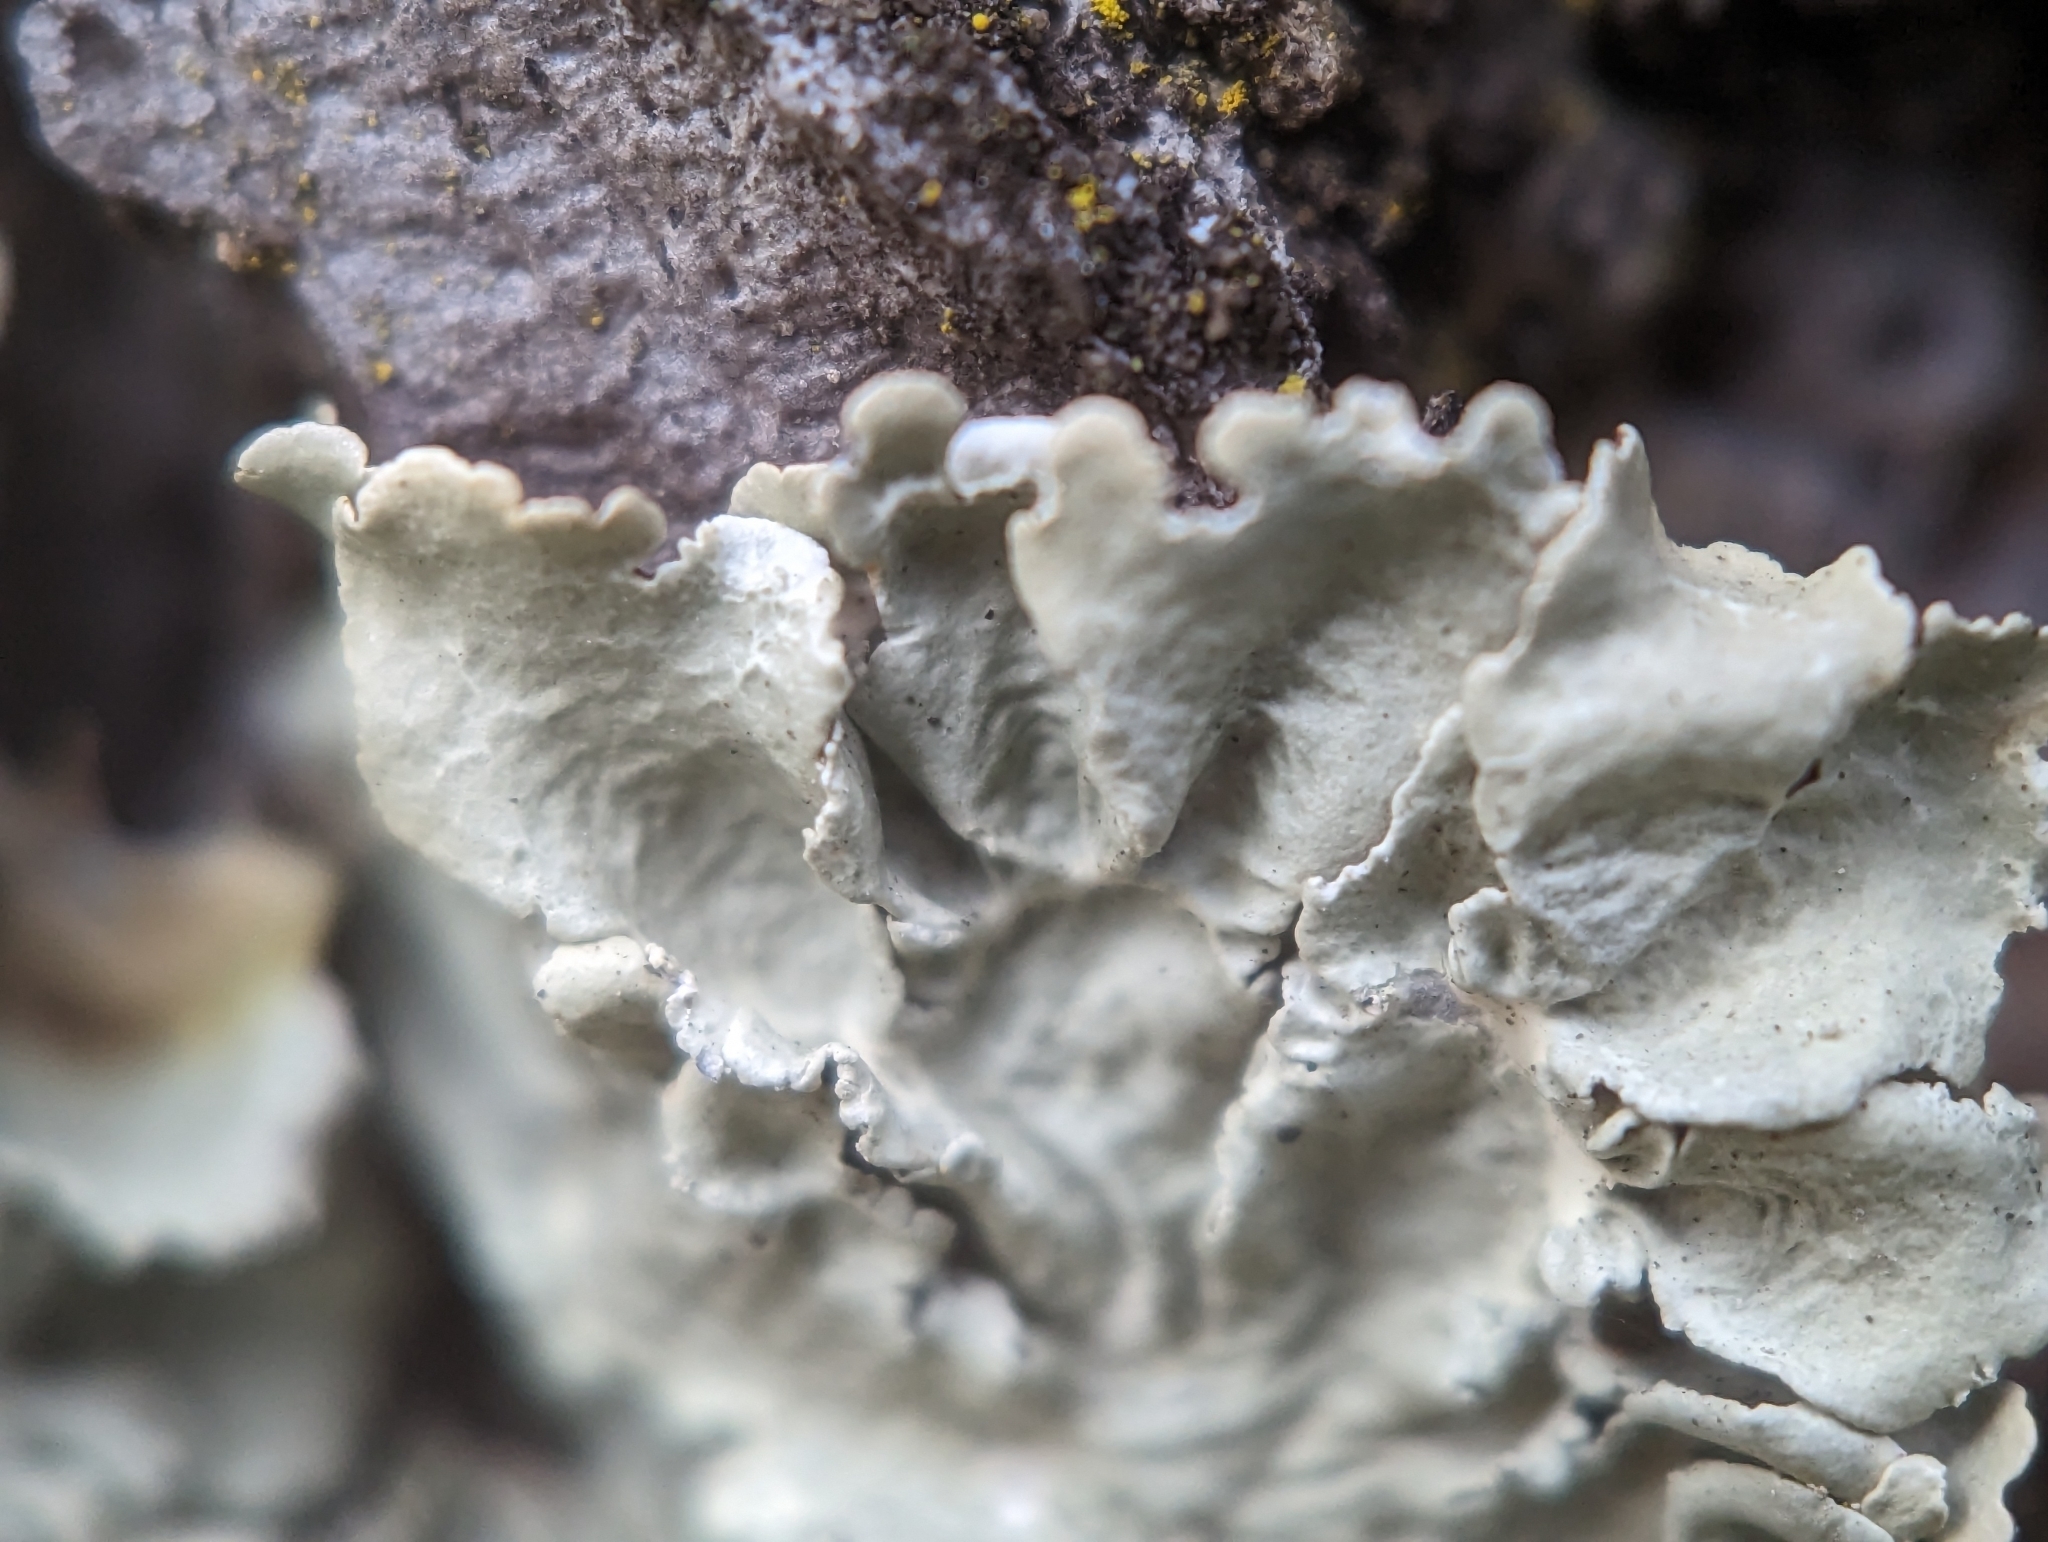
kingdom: Fungi
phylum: Ascomycota
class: Lecanoromycetes
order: Lecanorales
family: Parmeliaceae
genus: Flavoparmelia
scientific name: Flavoparmelia caperata
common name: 40-mile per hour lichen
